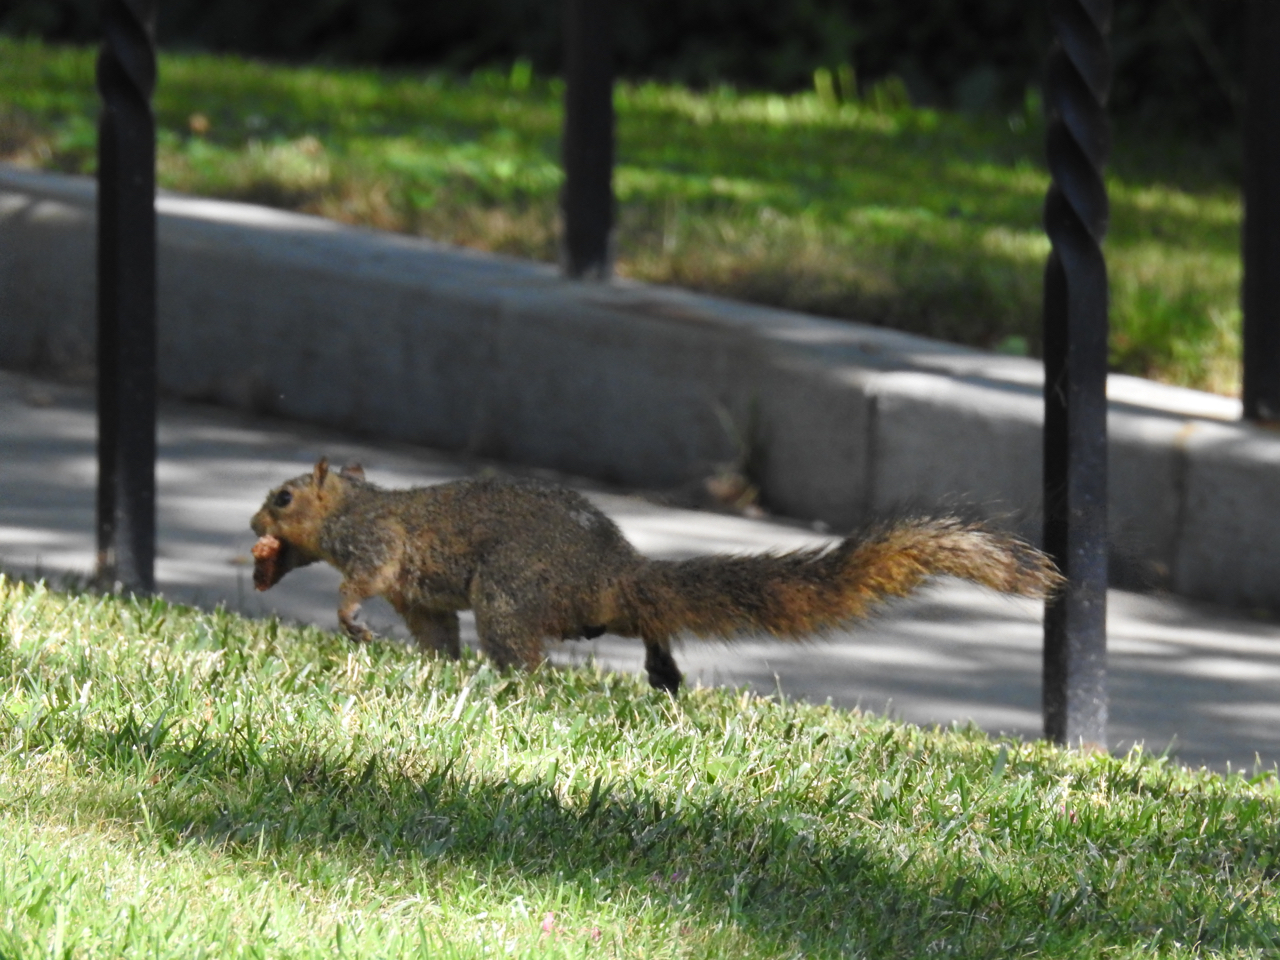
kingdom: Animalia
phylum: Chordata
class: Mammalia
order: Rodentia
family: Sciuridae
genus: Sciurus
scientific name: Sciurus niger
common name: Fox squirrel
